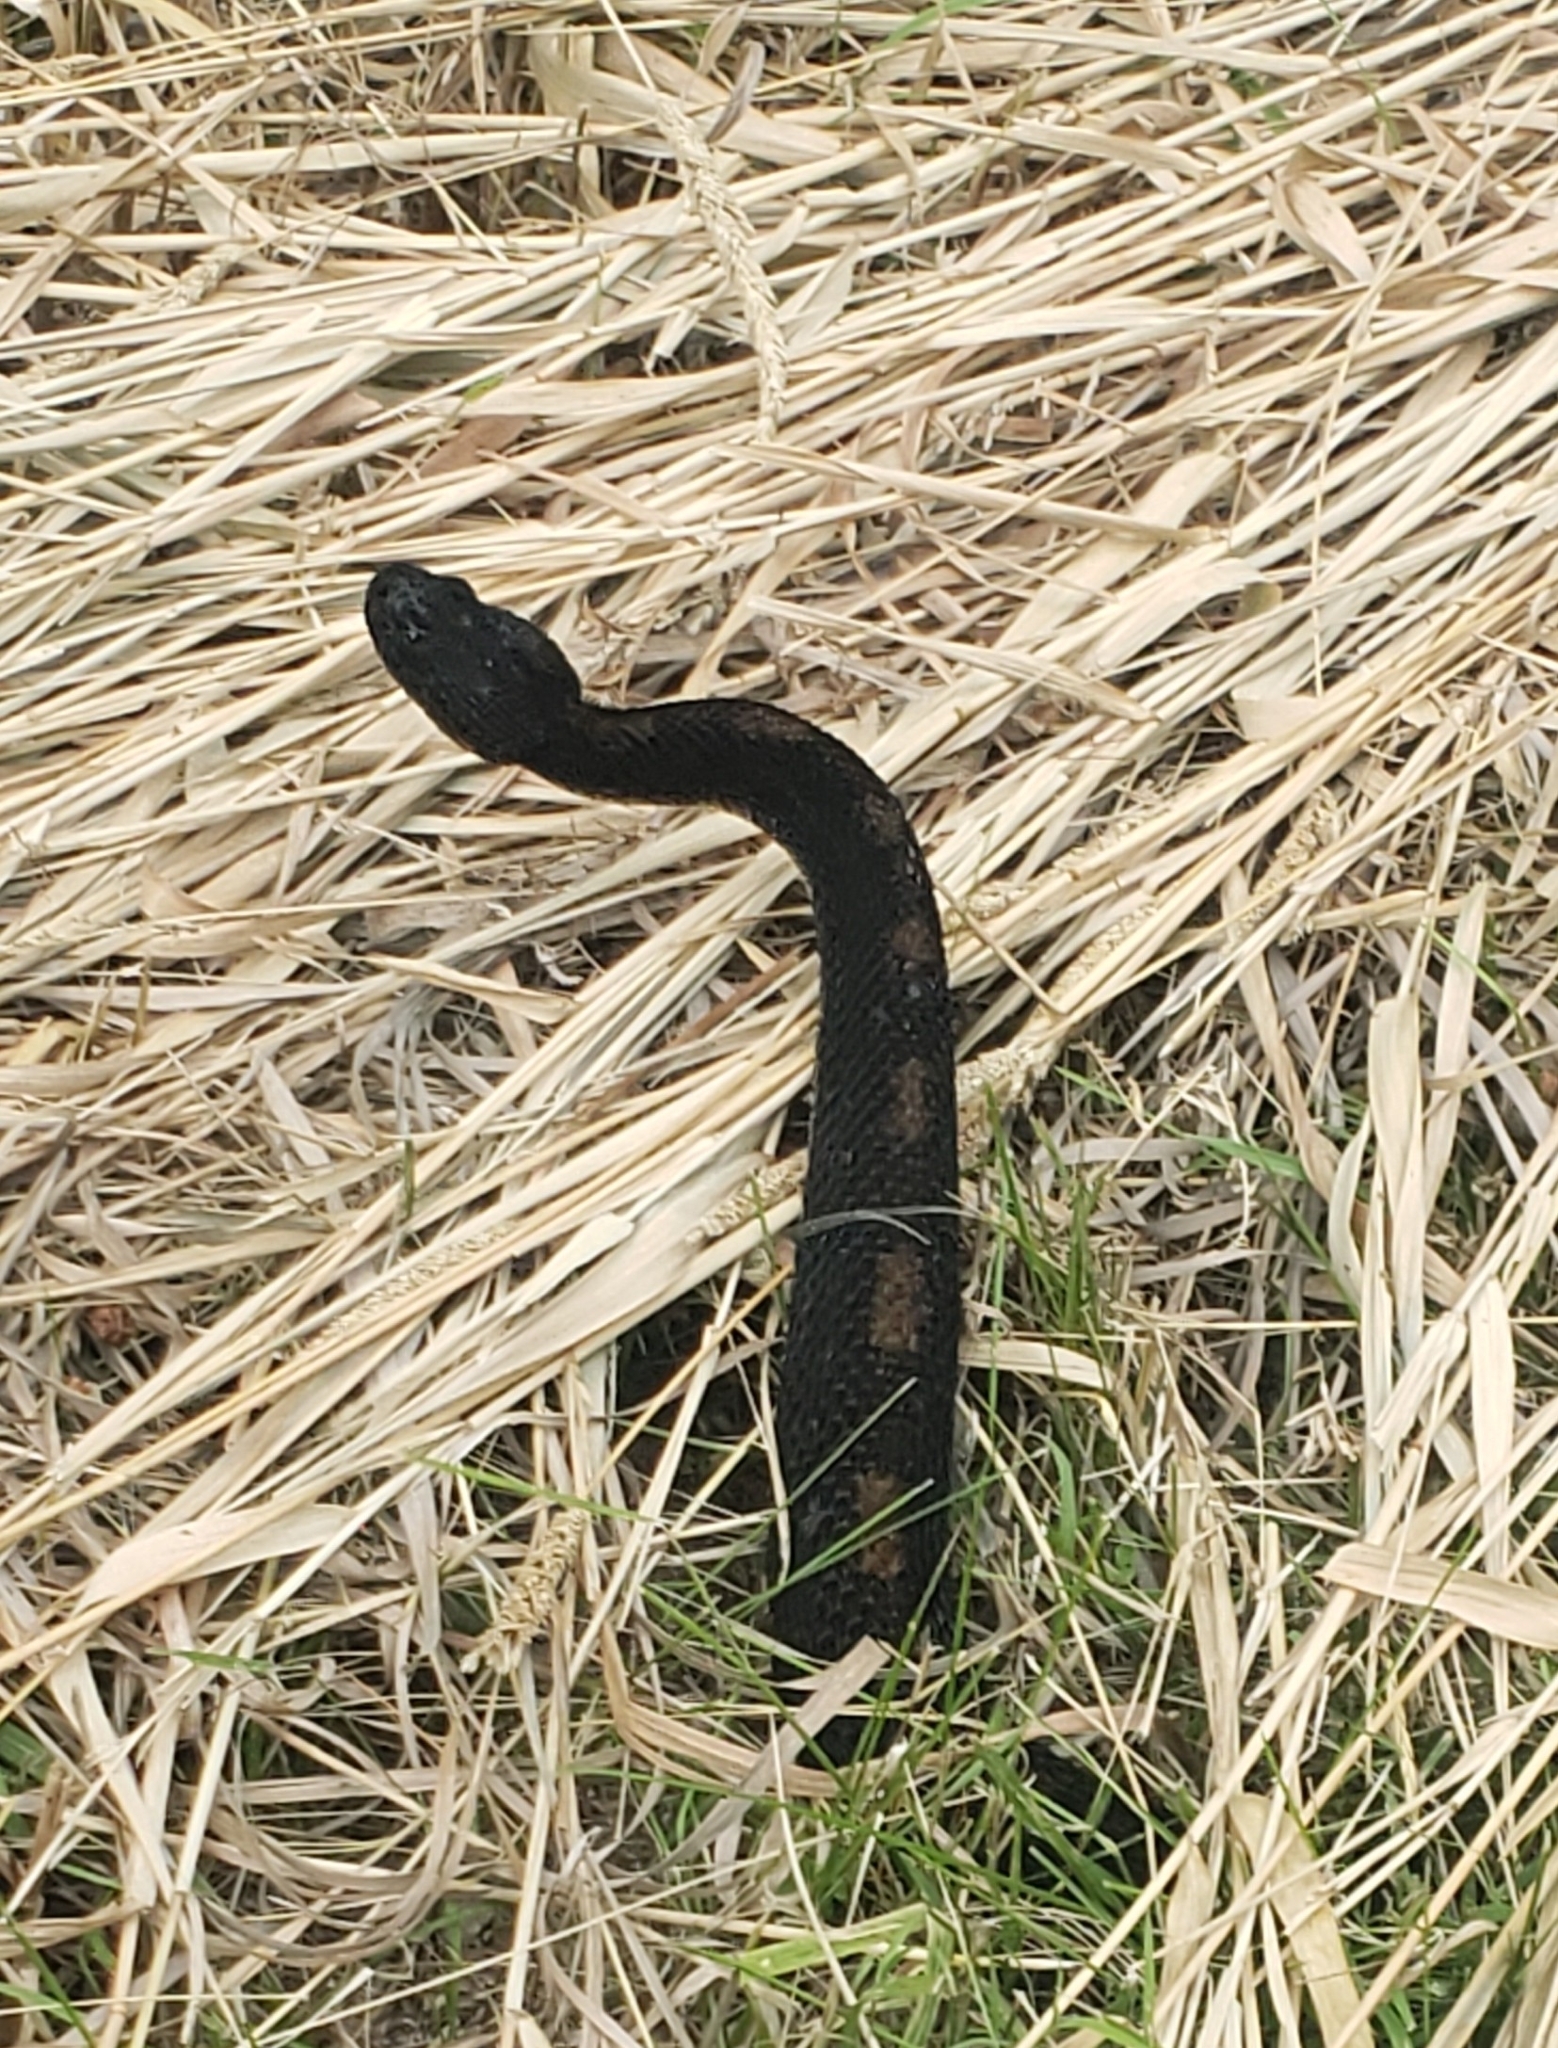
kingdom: Animalia
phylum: Chordata
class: Squamata
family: Viperidae
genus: Crotalus
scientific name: Crotalus horridus
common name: Timber rattlesnake
